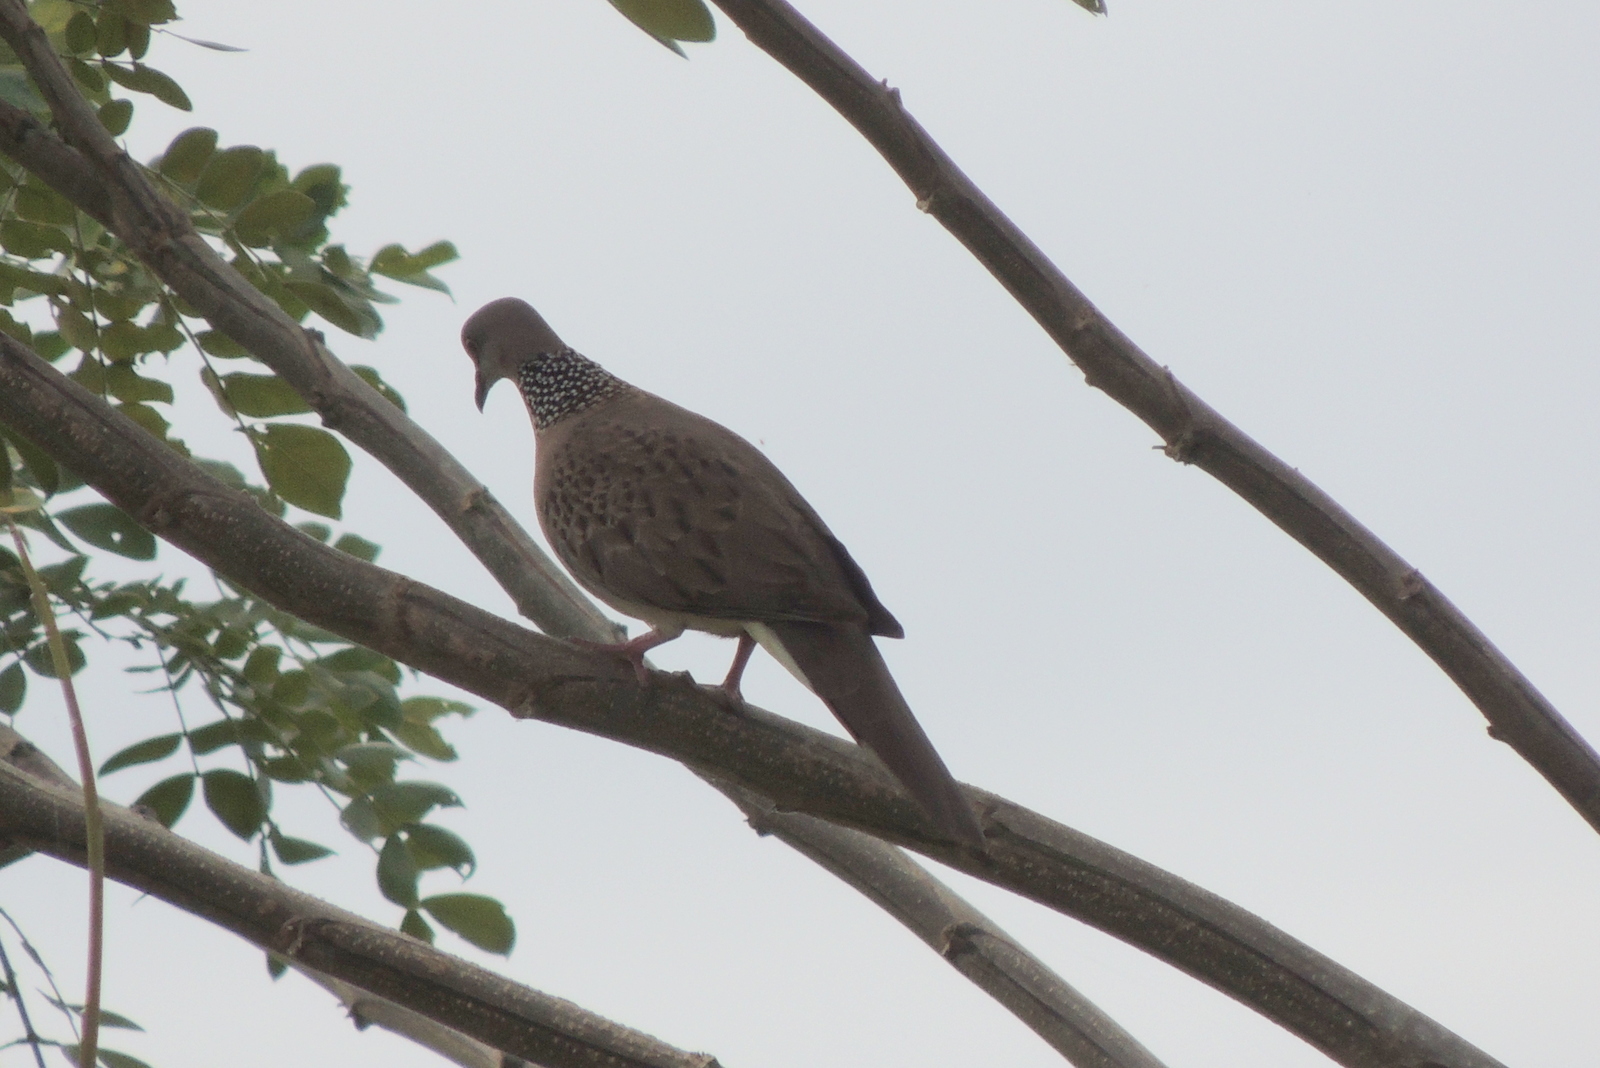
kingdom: Animalia
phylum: Chordata
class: Aves
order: Columbiformes
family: Columbidae
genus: Spilopelia
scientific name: Spilopelia chinensis
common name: Spotted dove
